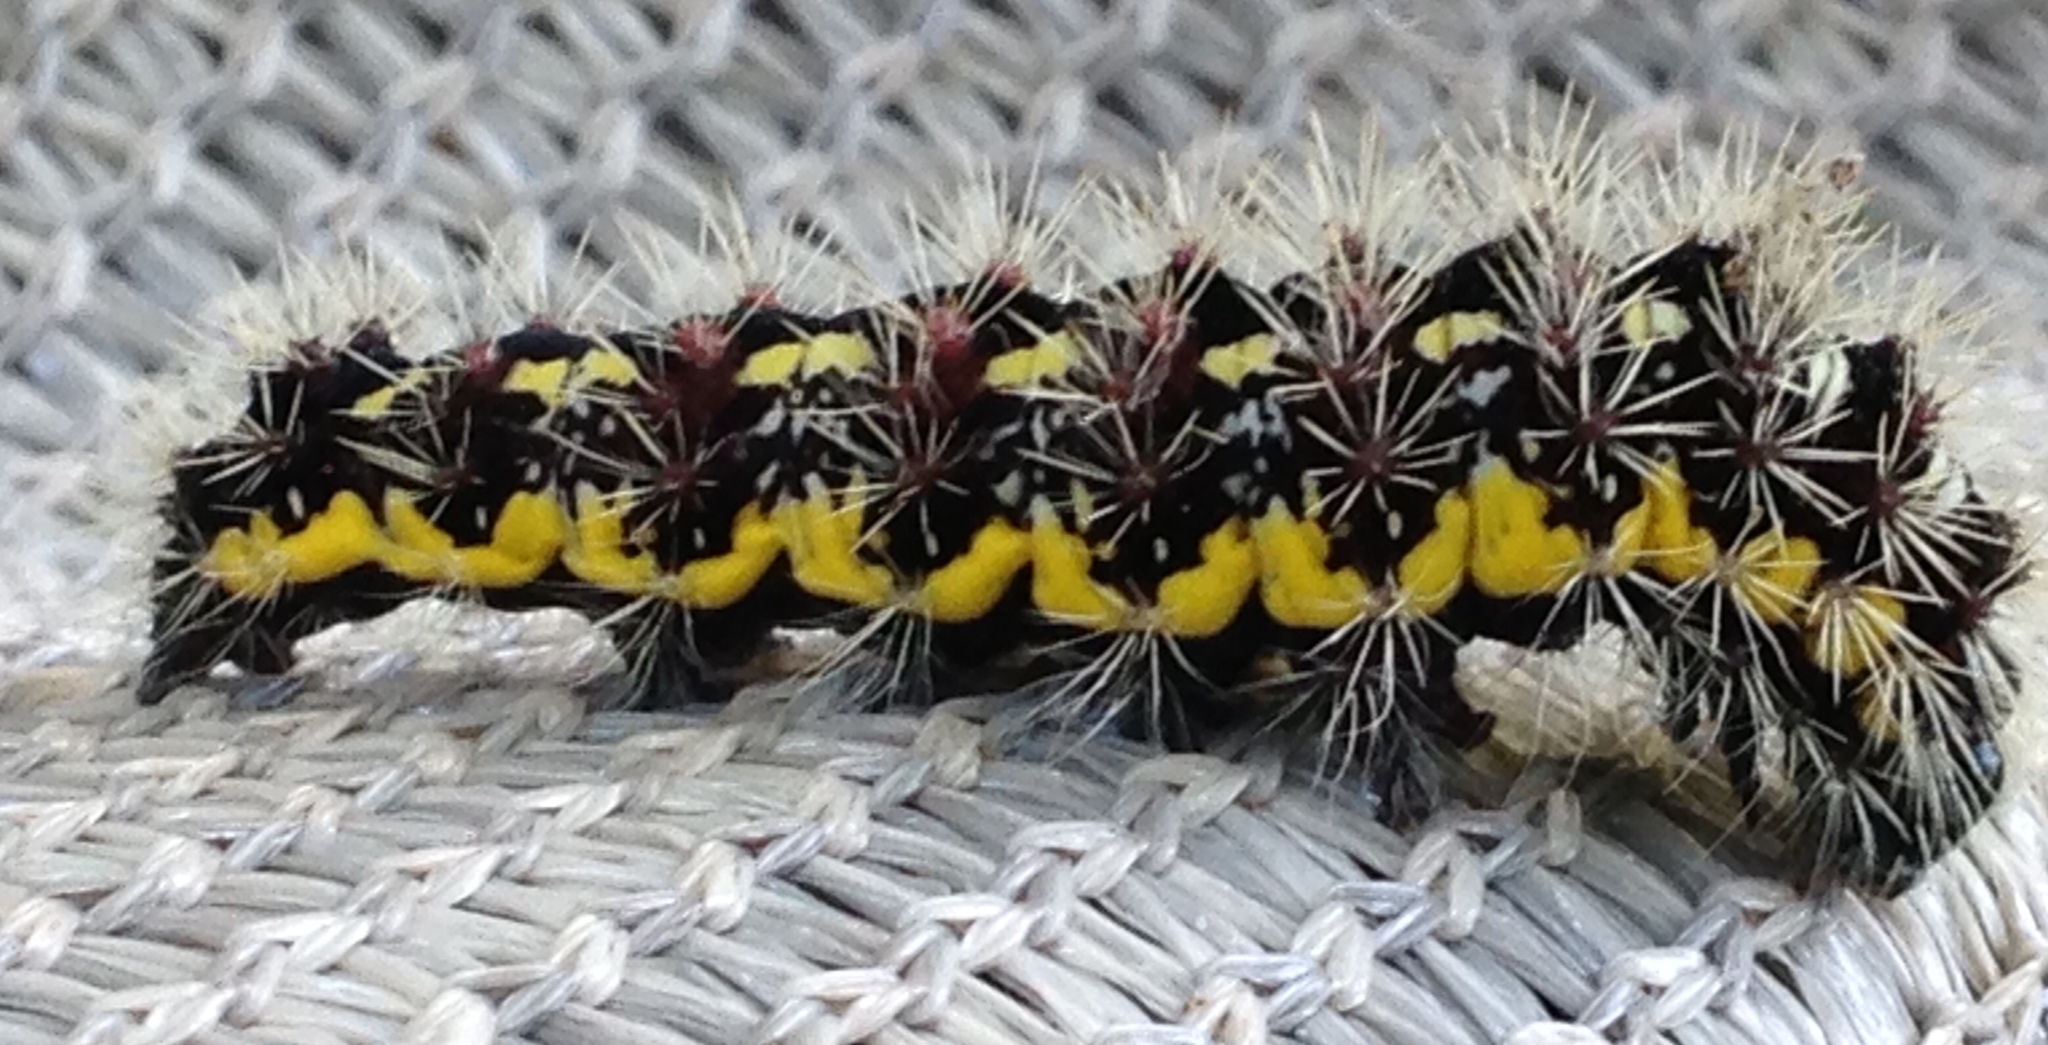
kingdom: Animalia
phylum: Arthropoda
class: Insecta
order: Lepidoptera
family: Noctuidae
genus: Acronicta
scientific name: Acronicta oblinita
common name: Smeared dagger
